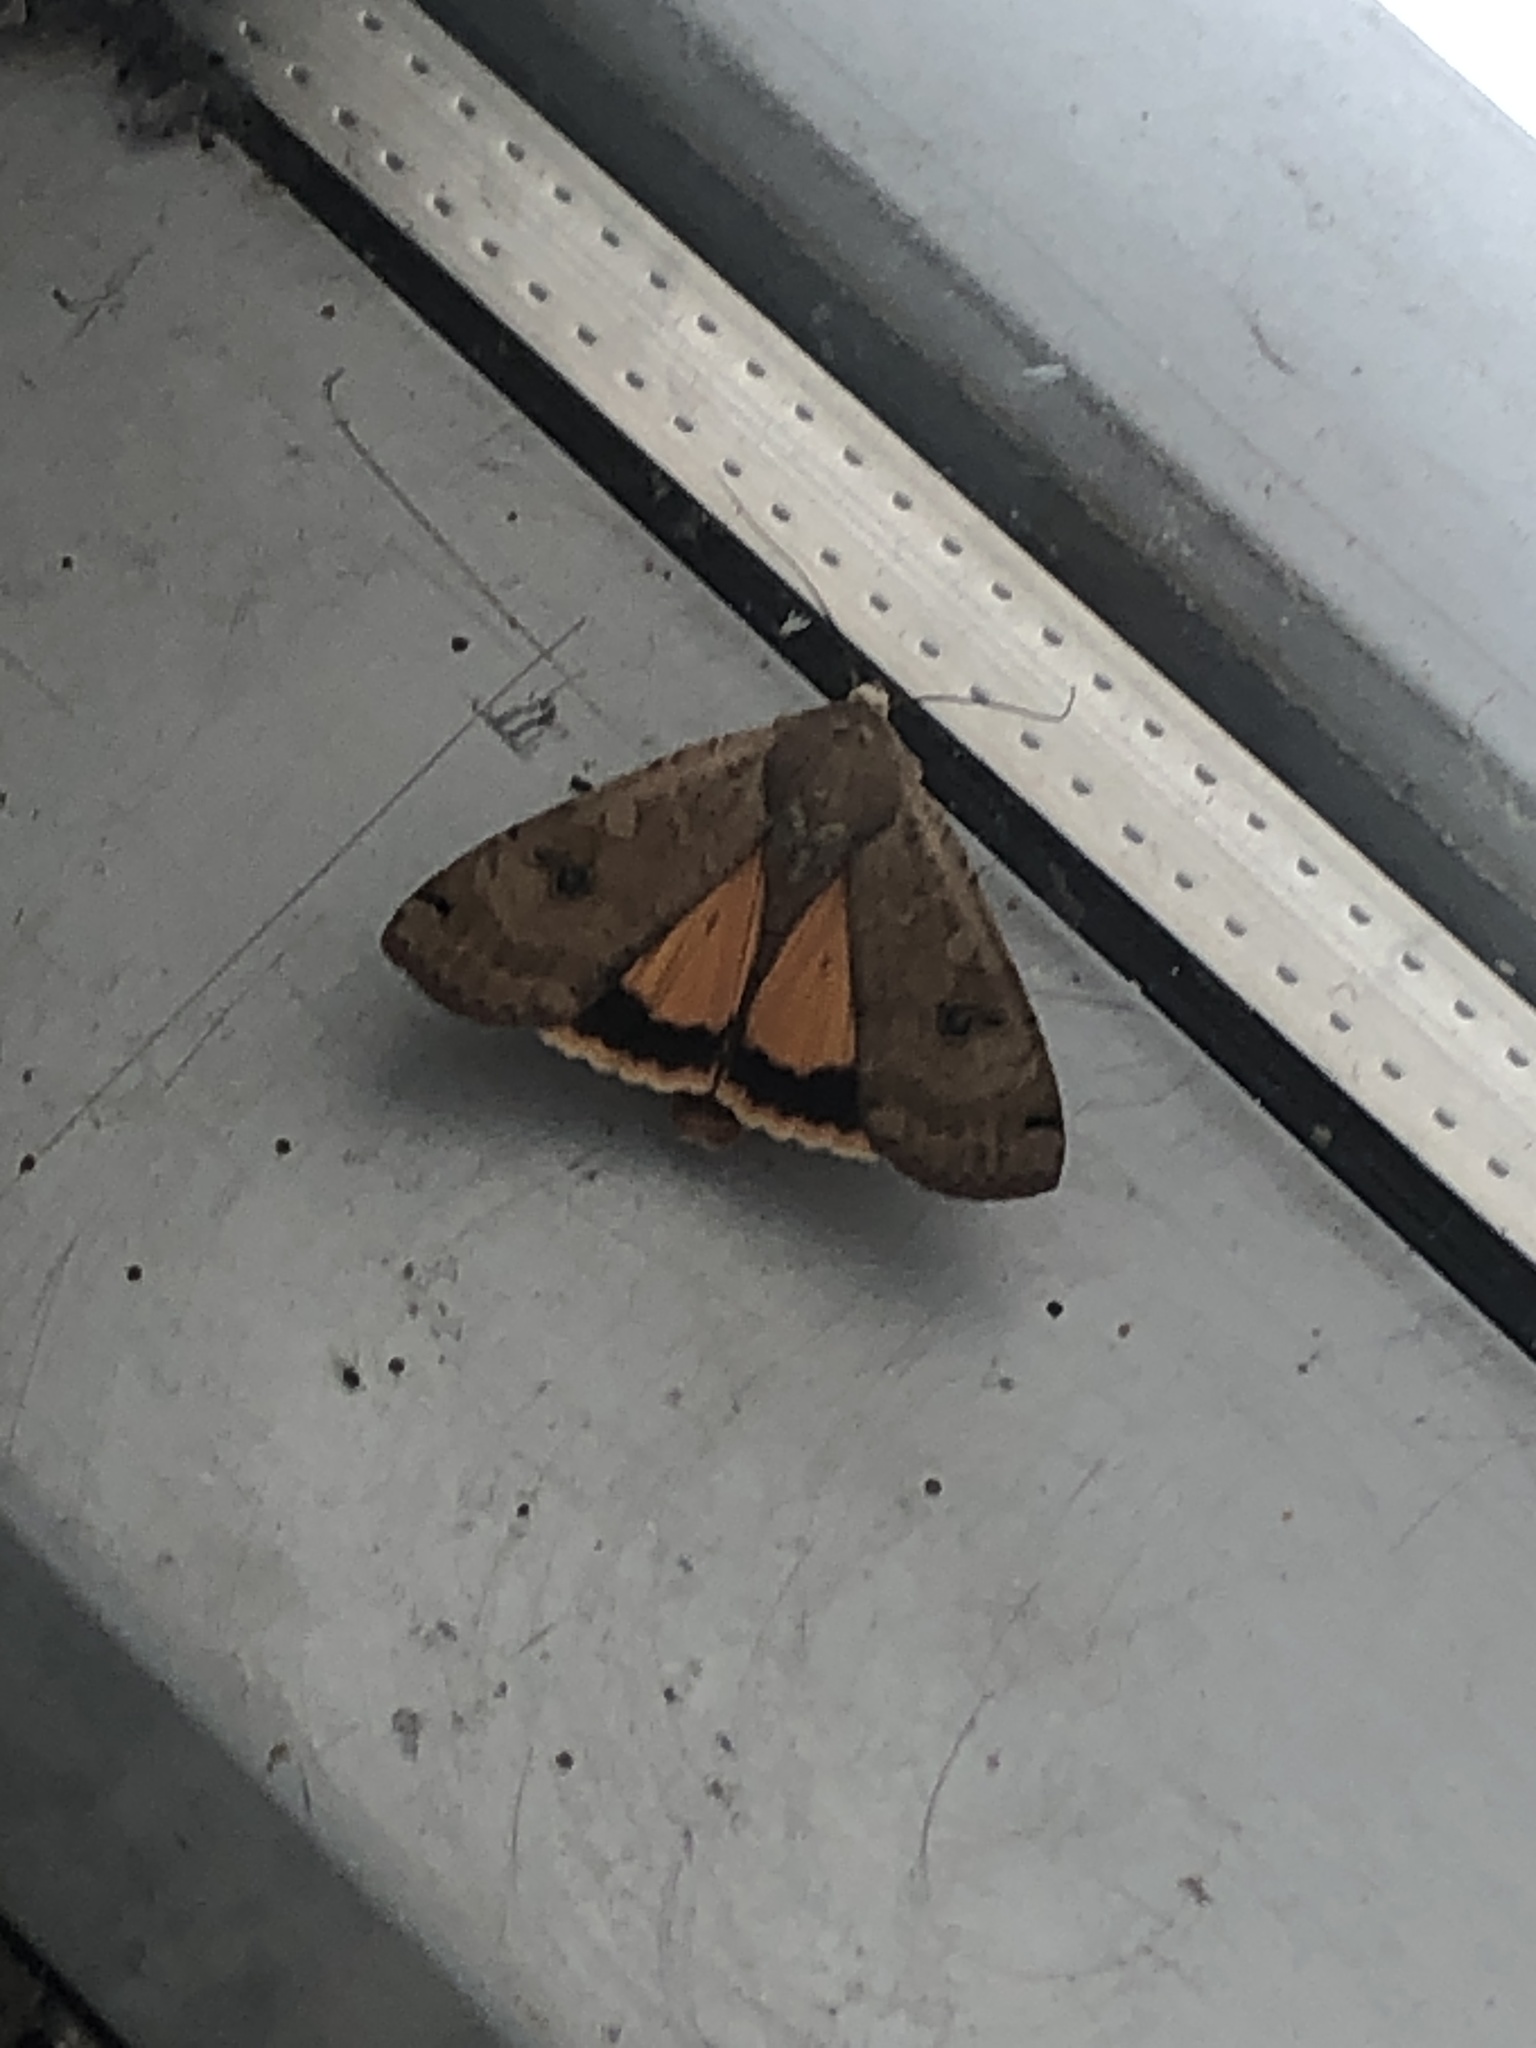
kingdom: Animalia
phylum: Arthropoda
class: Insecta
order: Lepidoptera
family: Noctuidae
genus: Noctua
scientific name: Noctua pronuba
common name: Large yellow underwing
